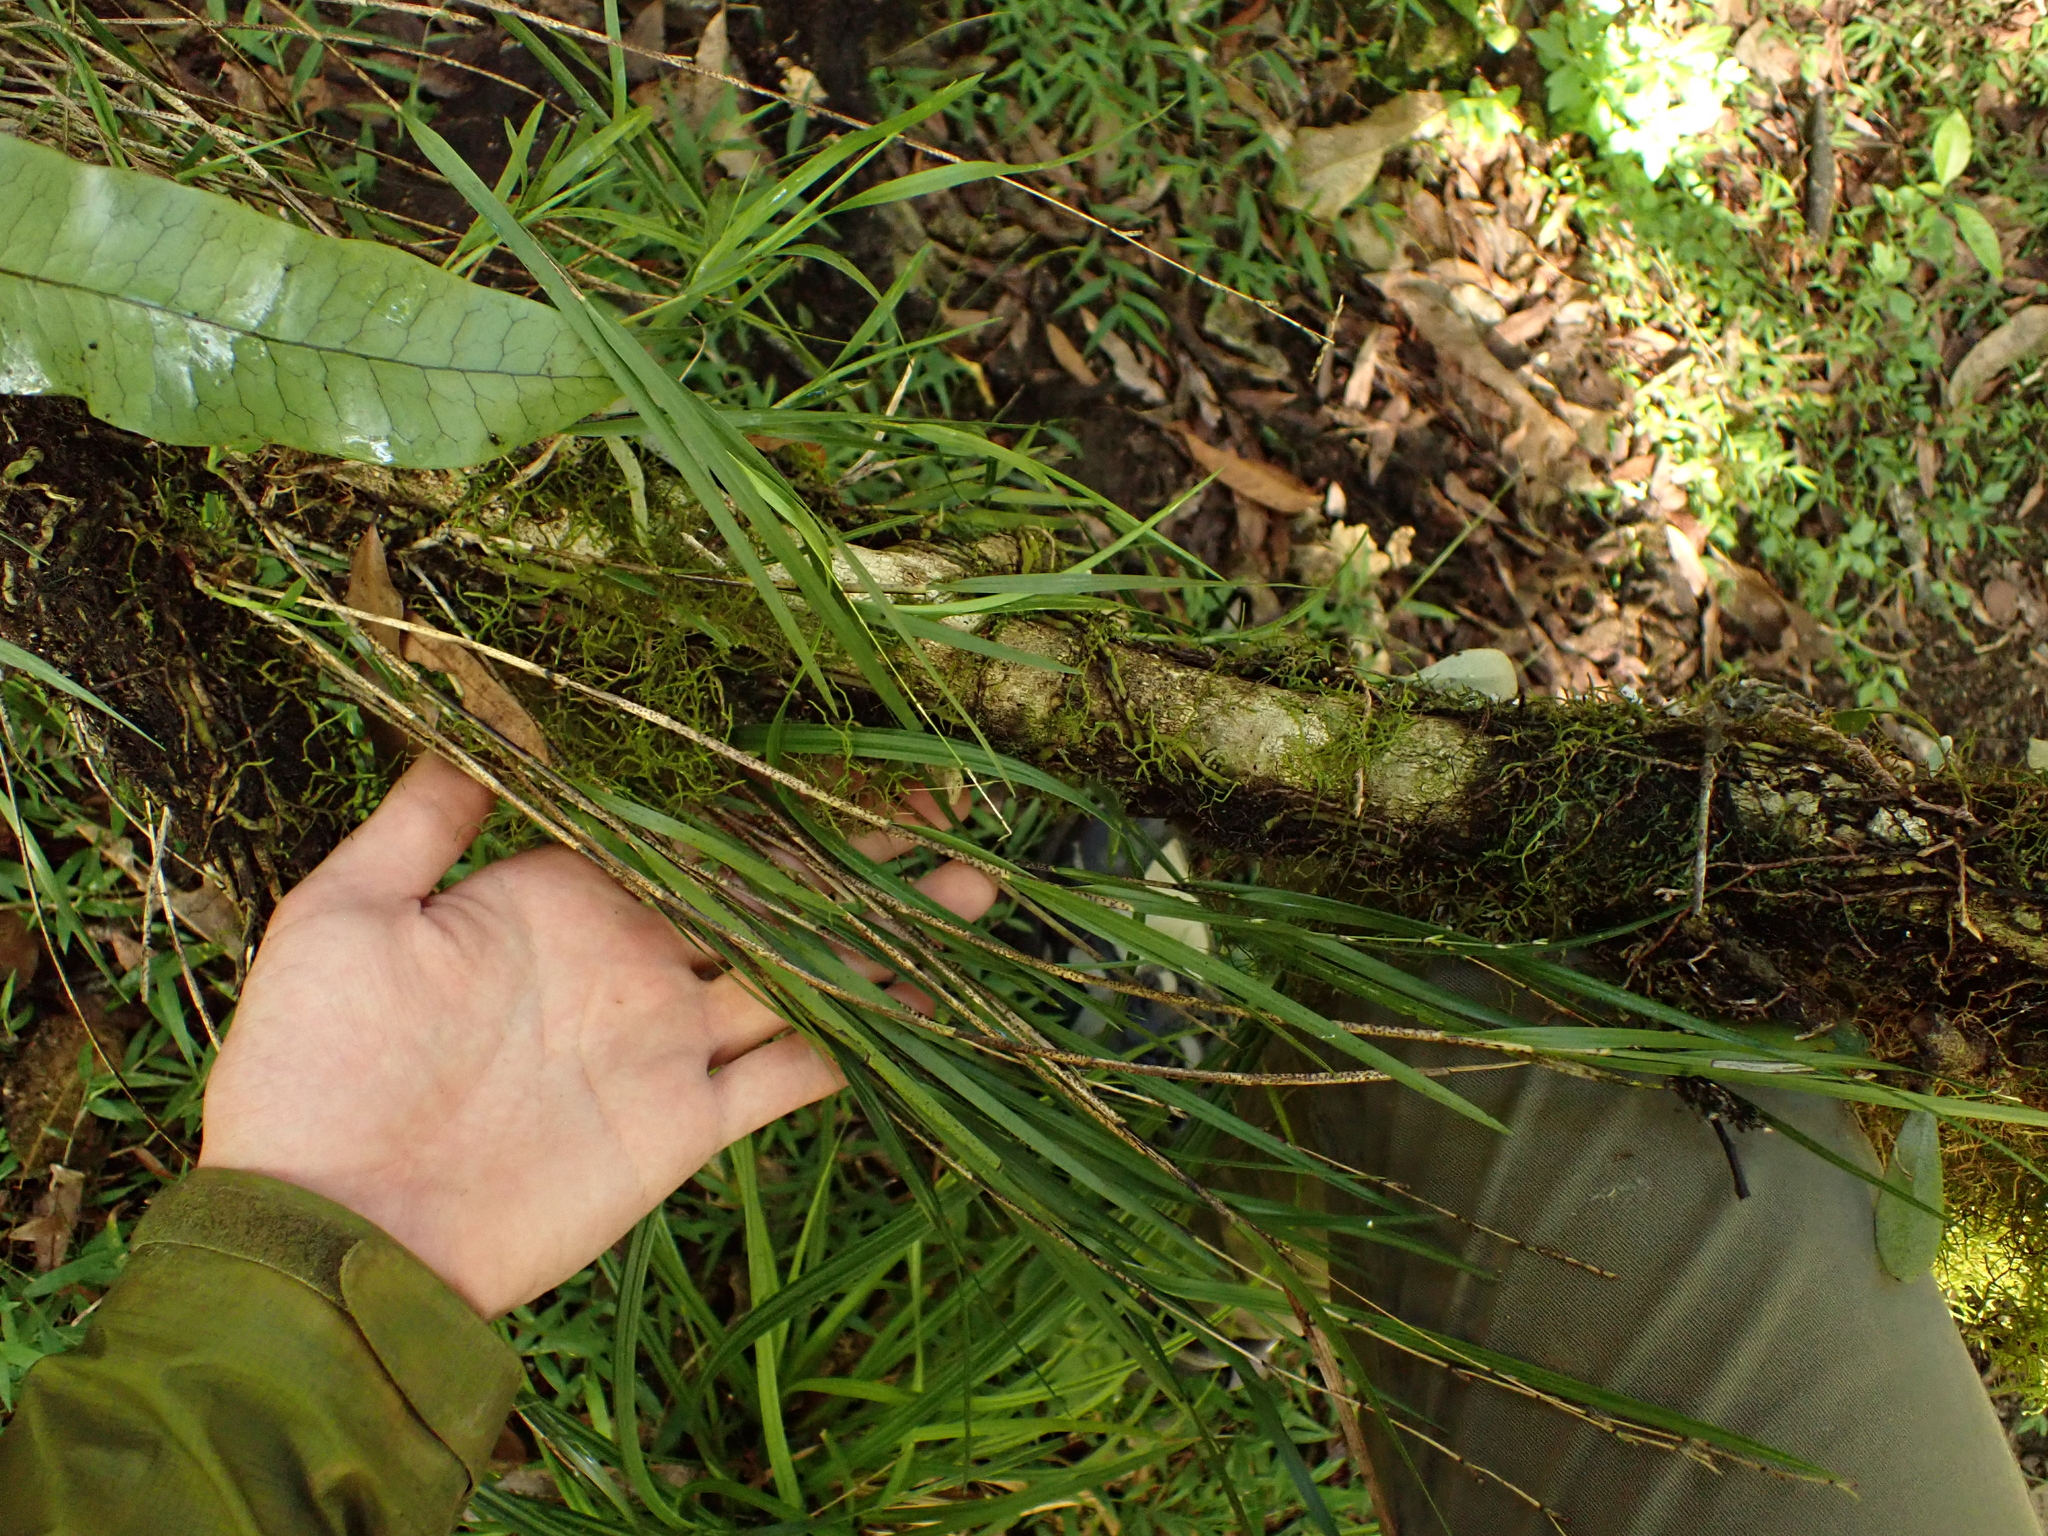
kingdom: Plantae
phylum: Tracheophyta
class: Liliopsida
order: Asparagales
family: Orchidaceae
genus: Earina
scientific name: Earina mucronata
